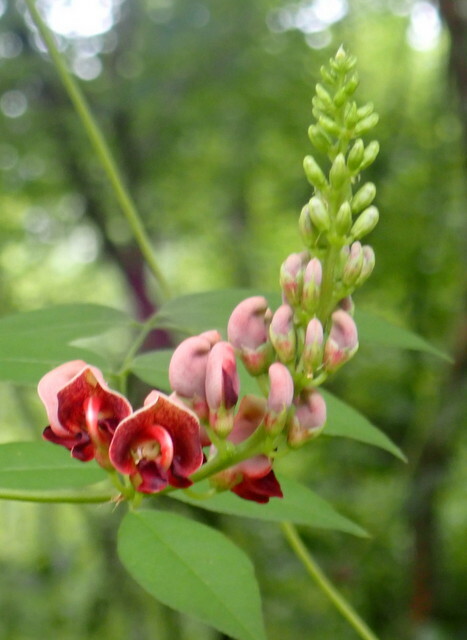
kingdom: Plantae
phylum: Tracheophyta
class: Magnoliopsida
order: Fabales
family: Fabaceae
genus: Apios
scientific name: Apios americana
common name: American potato-bean
